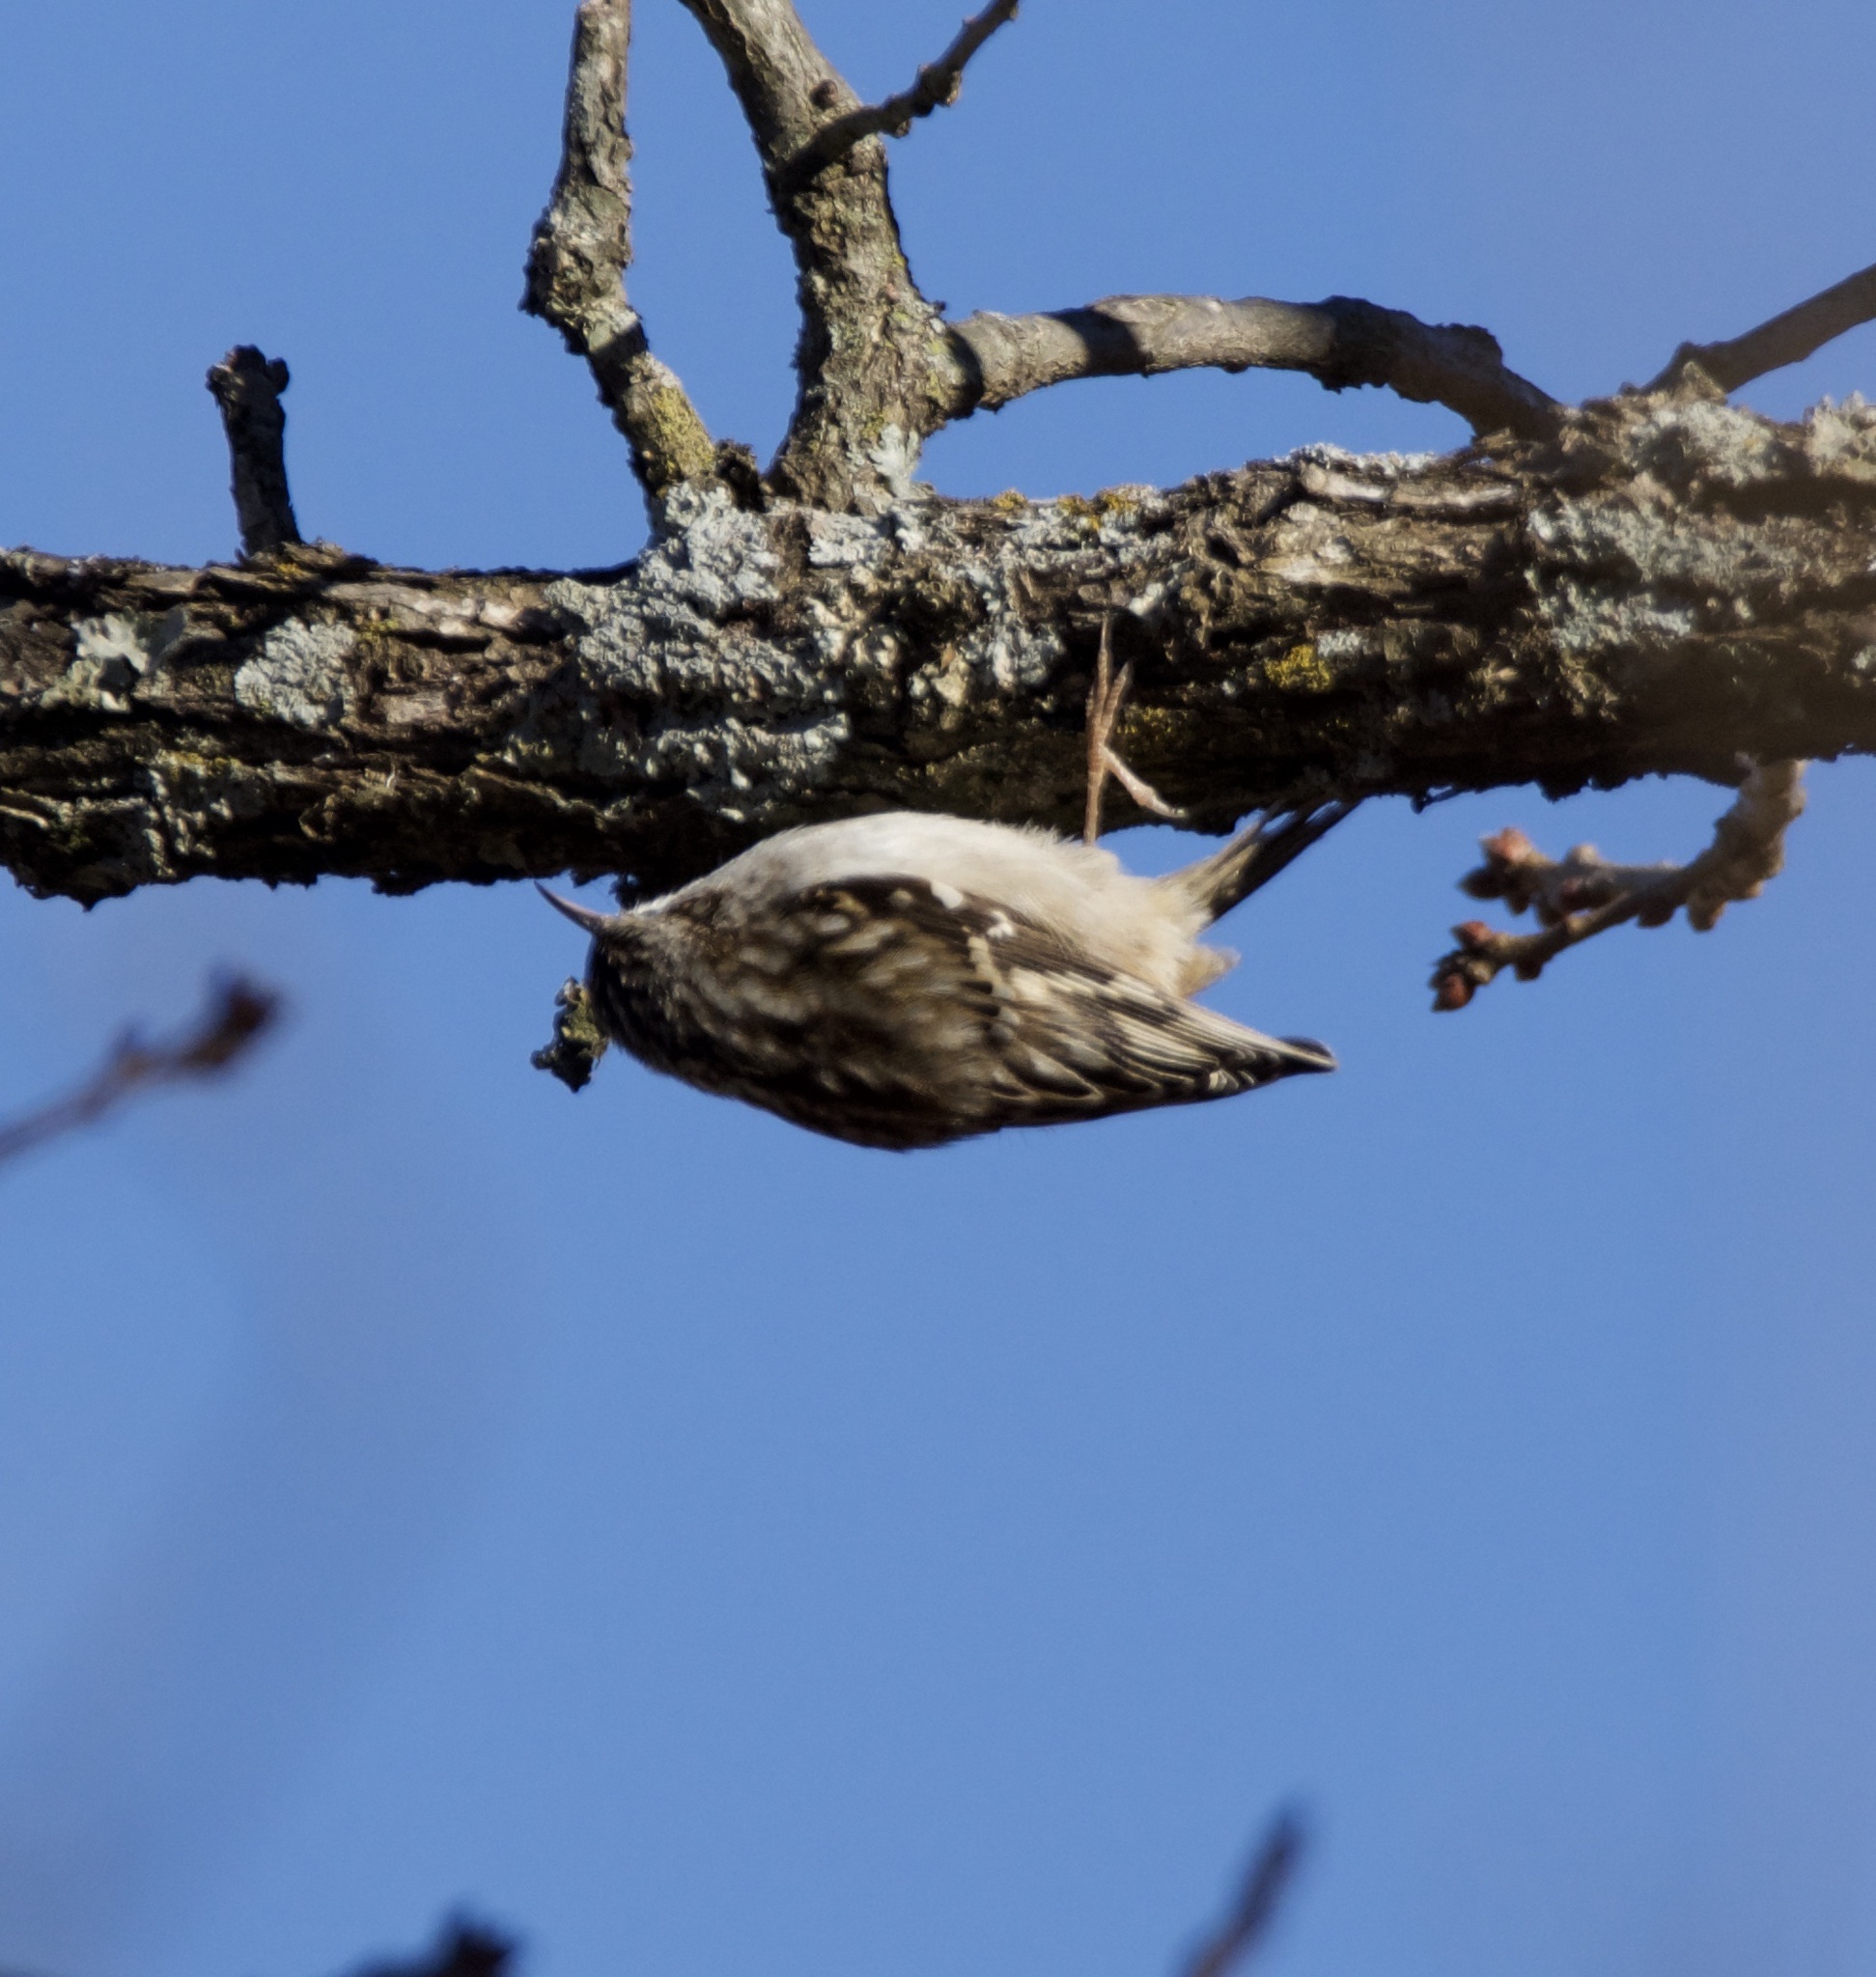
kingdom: Animalia
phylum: Chordata
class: Aves
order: Passeriformes
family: Certhiidae
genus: Certhia
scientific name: Certhia americana
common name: Brown creeper
